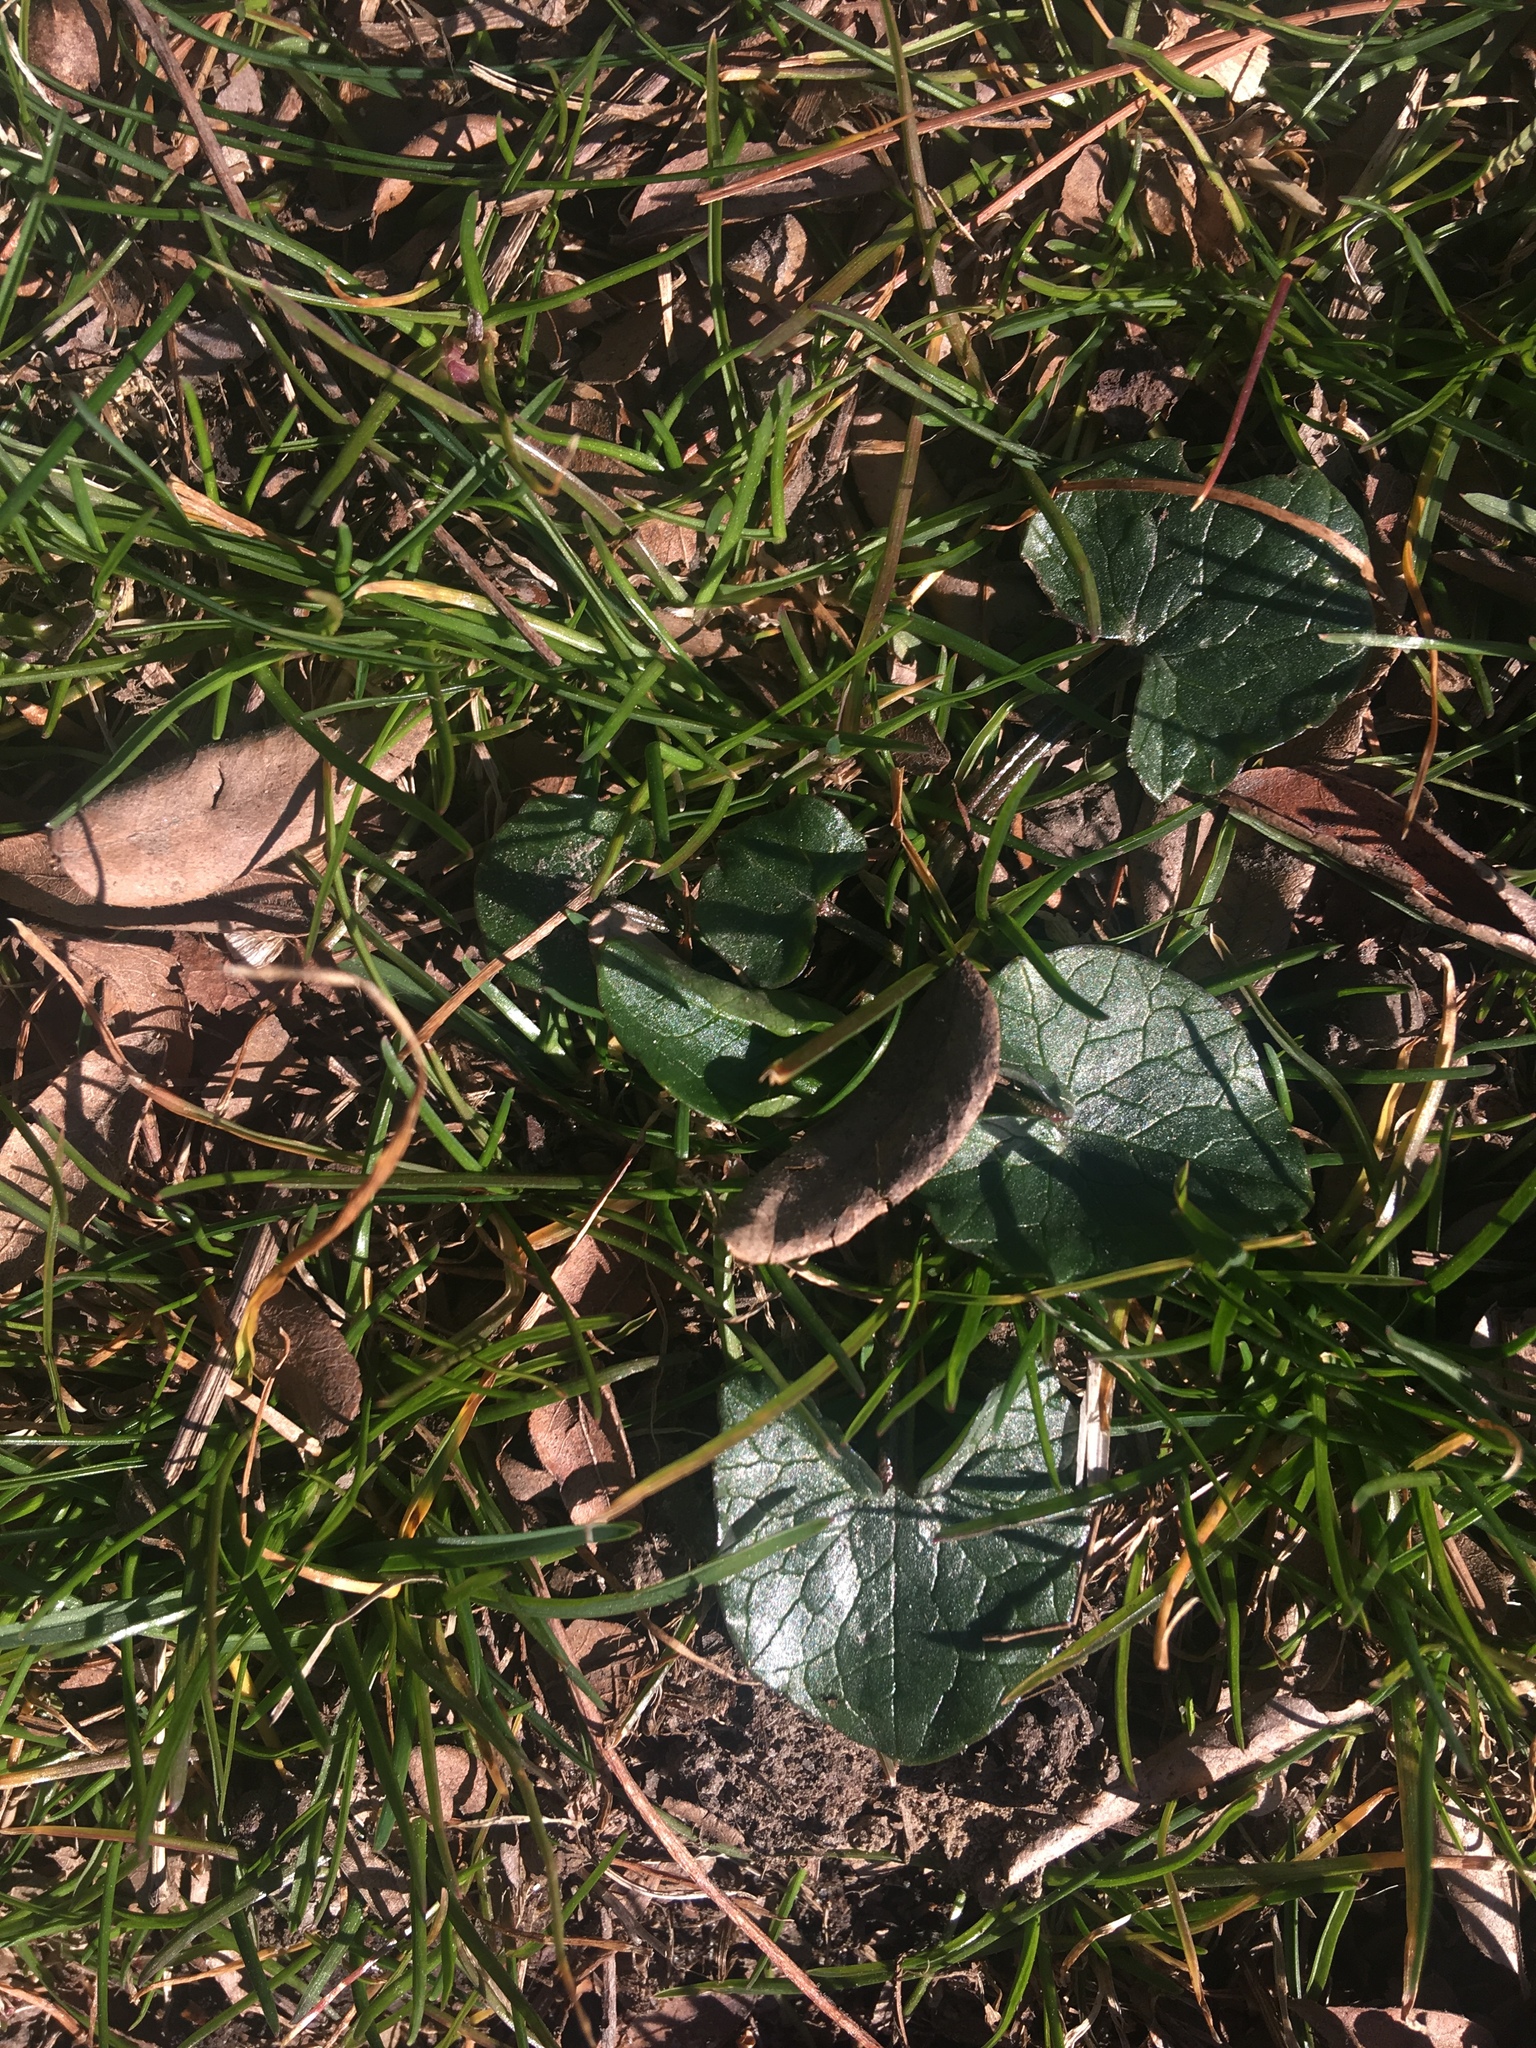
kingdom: Plantae
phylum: Tracheophyta
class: Magnoliopsida
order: Ranunculales
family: Ranunculaceae
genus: Ficaria
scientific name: Ficaria verna
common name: Lesser celandine
